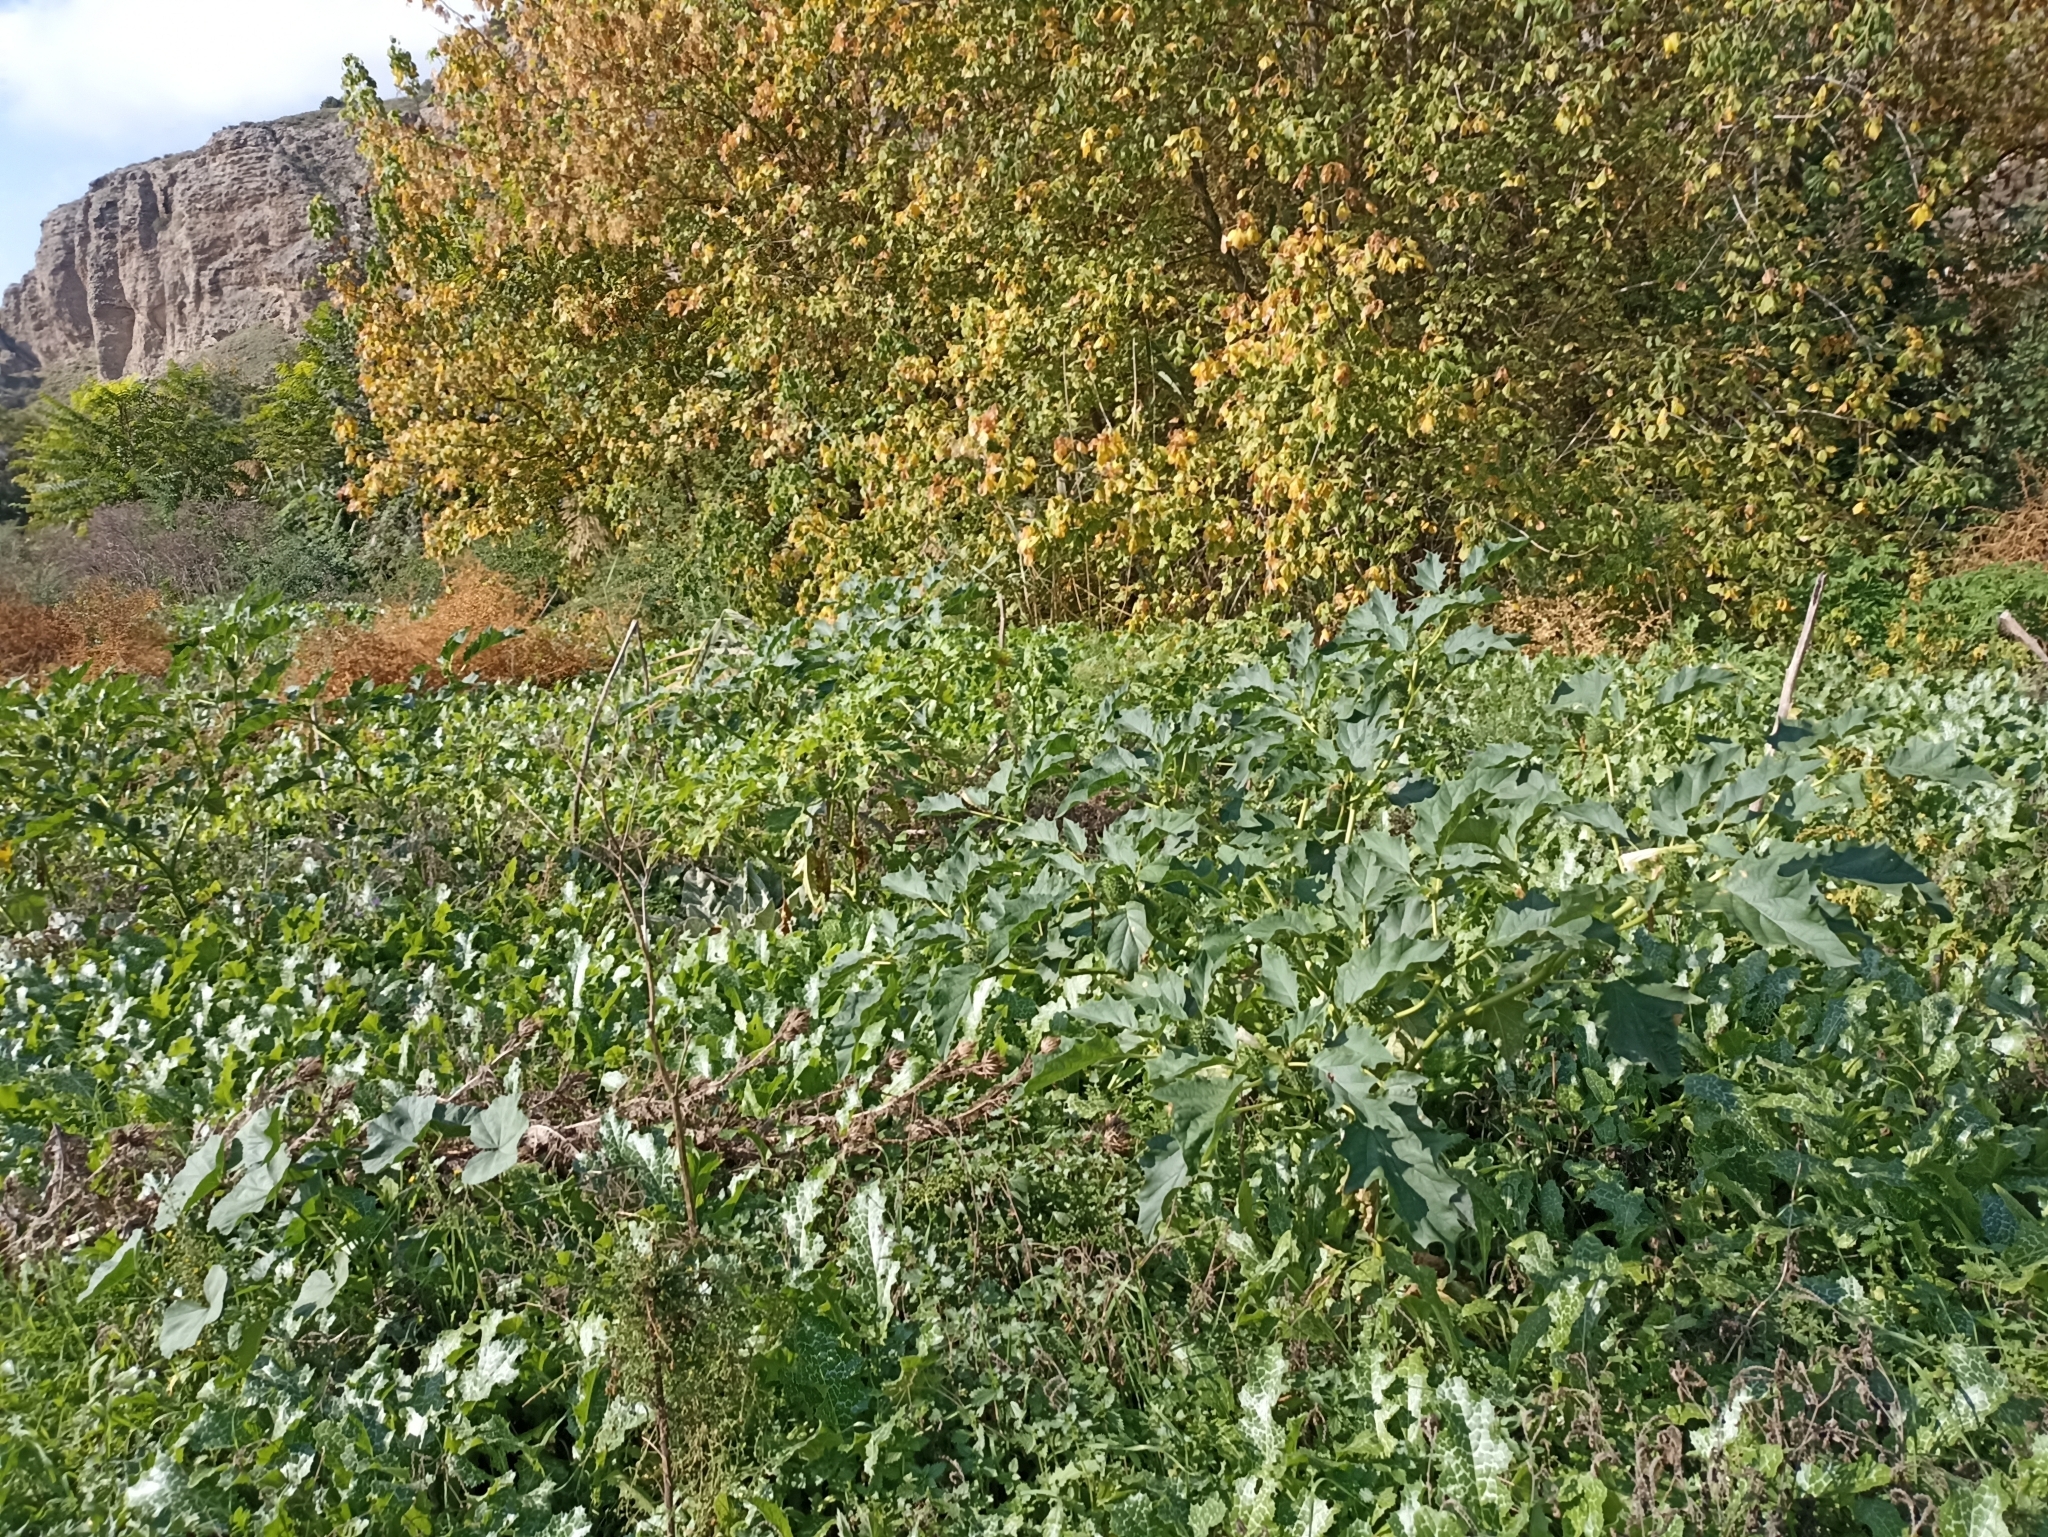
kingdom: Plantae
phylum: Tracheophyta
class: Magnoliopsida
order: Solanales
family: Solanaceae
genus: Datura
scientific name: Datura stramonium
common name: Thorn-apple
